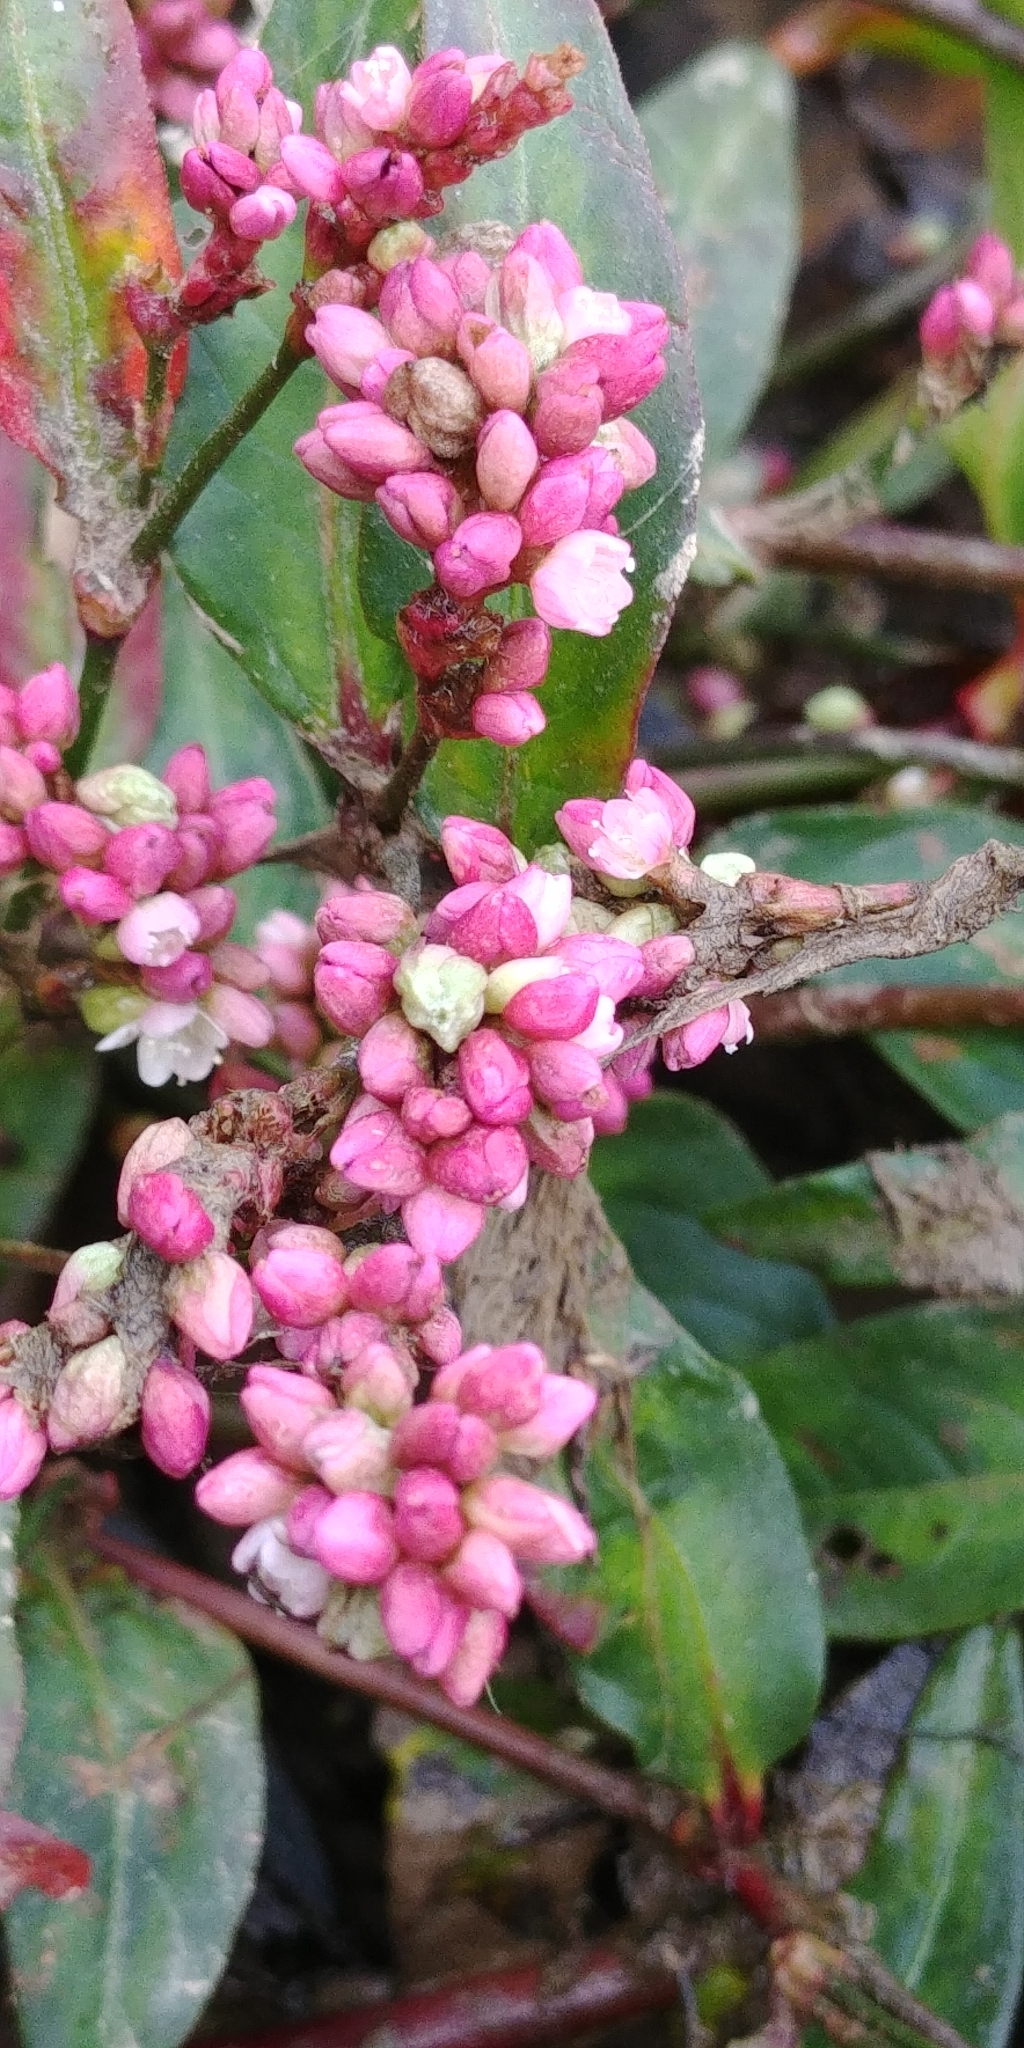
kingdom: Plantae
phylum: Tracheophyta
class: Magnoliopsida
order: Caryophyllales
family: Polygonaceae
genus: Persicaria
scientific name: Persicaria maculosa
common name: Redshank
